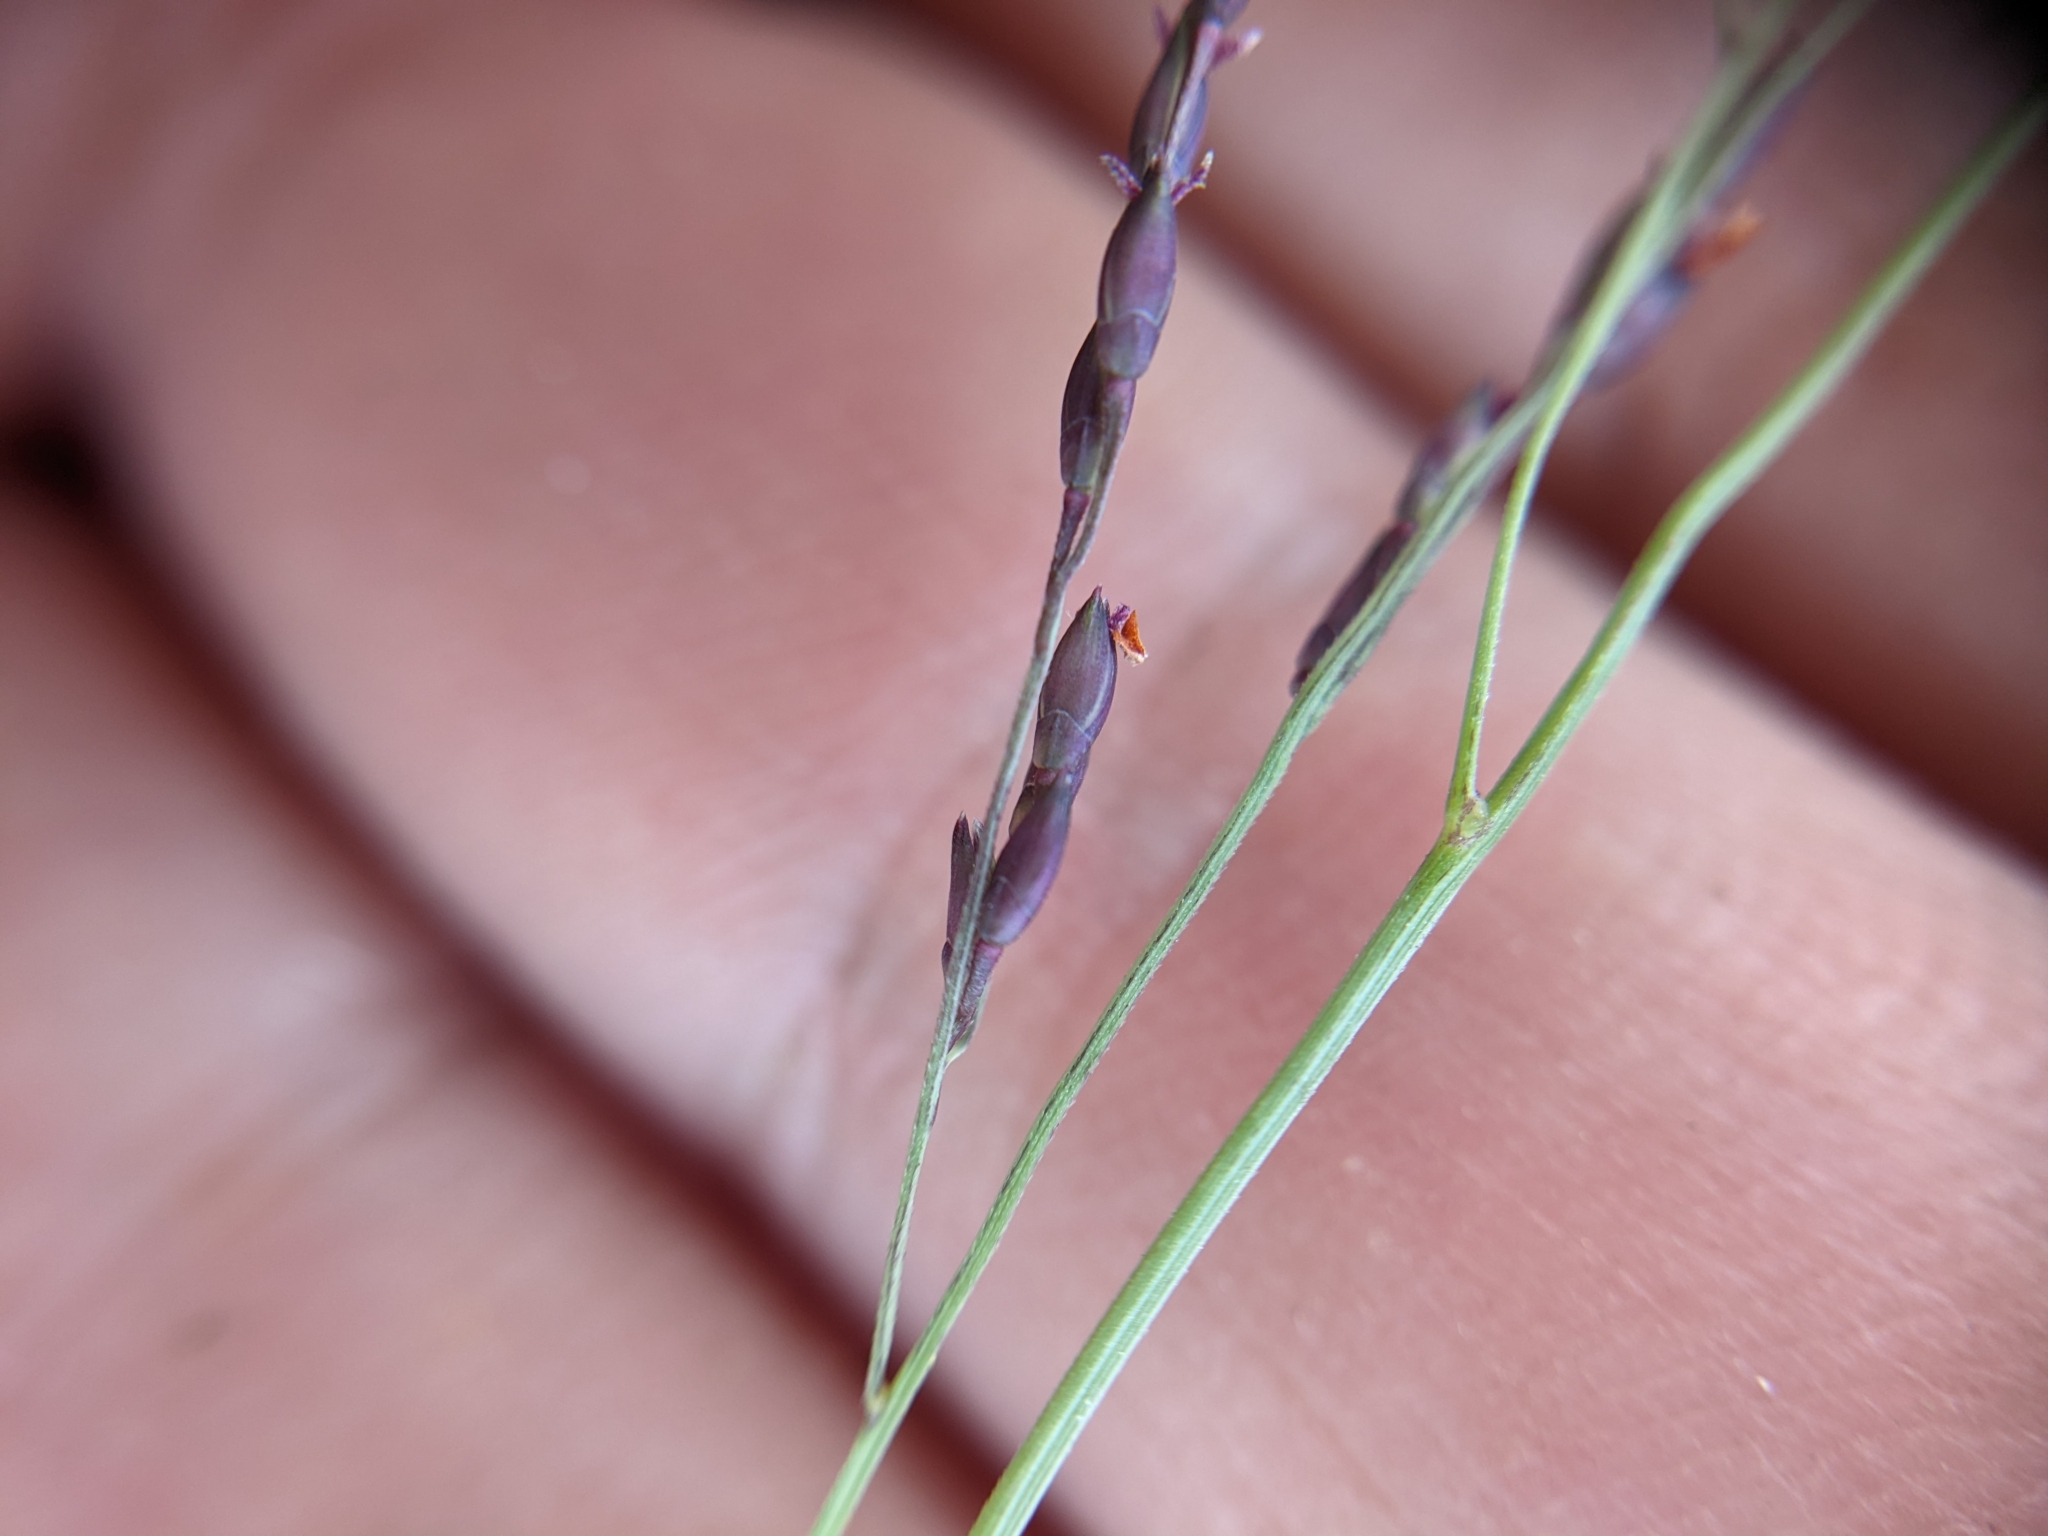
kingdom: Plantae
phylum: Tracheophyta
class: Liliopsida
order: Poales
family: Poaceae
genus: Panicum
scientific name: Panicum dichotomiflorum
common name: Autumn millet
